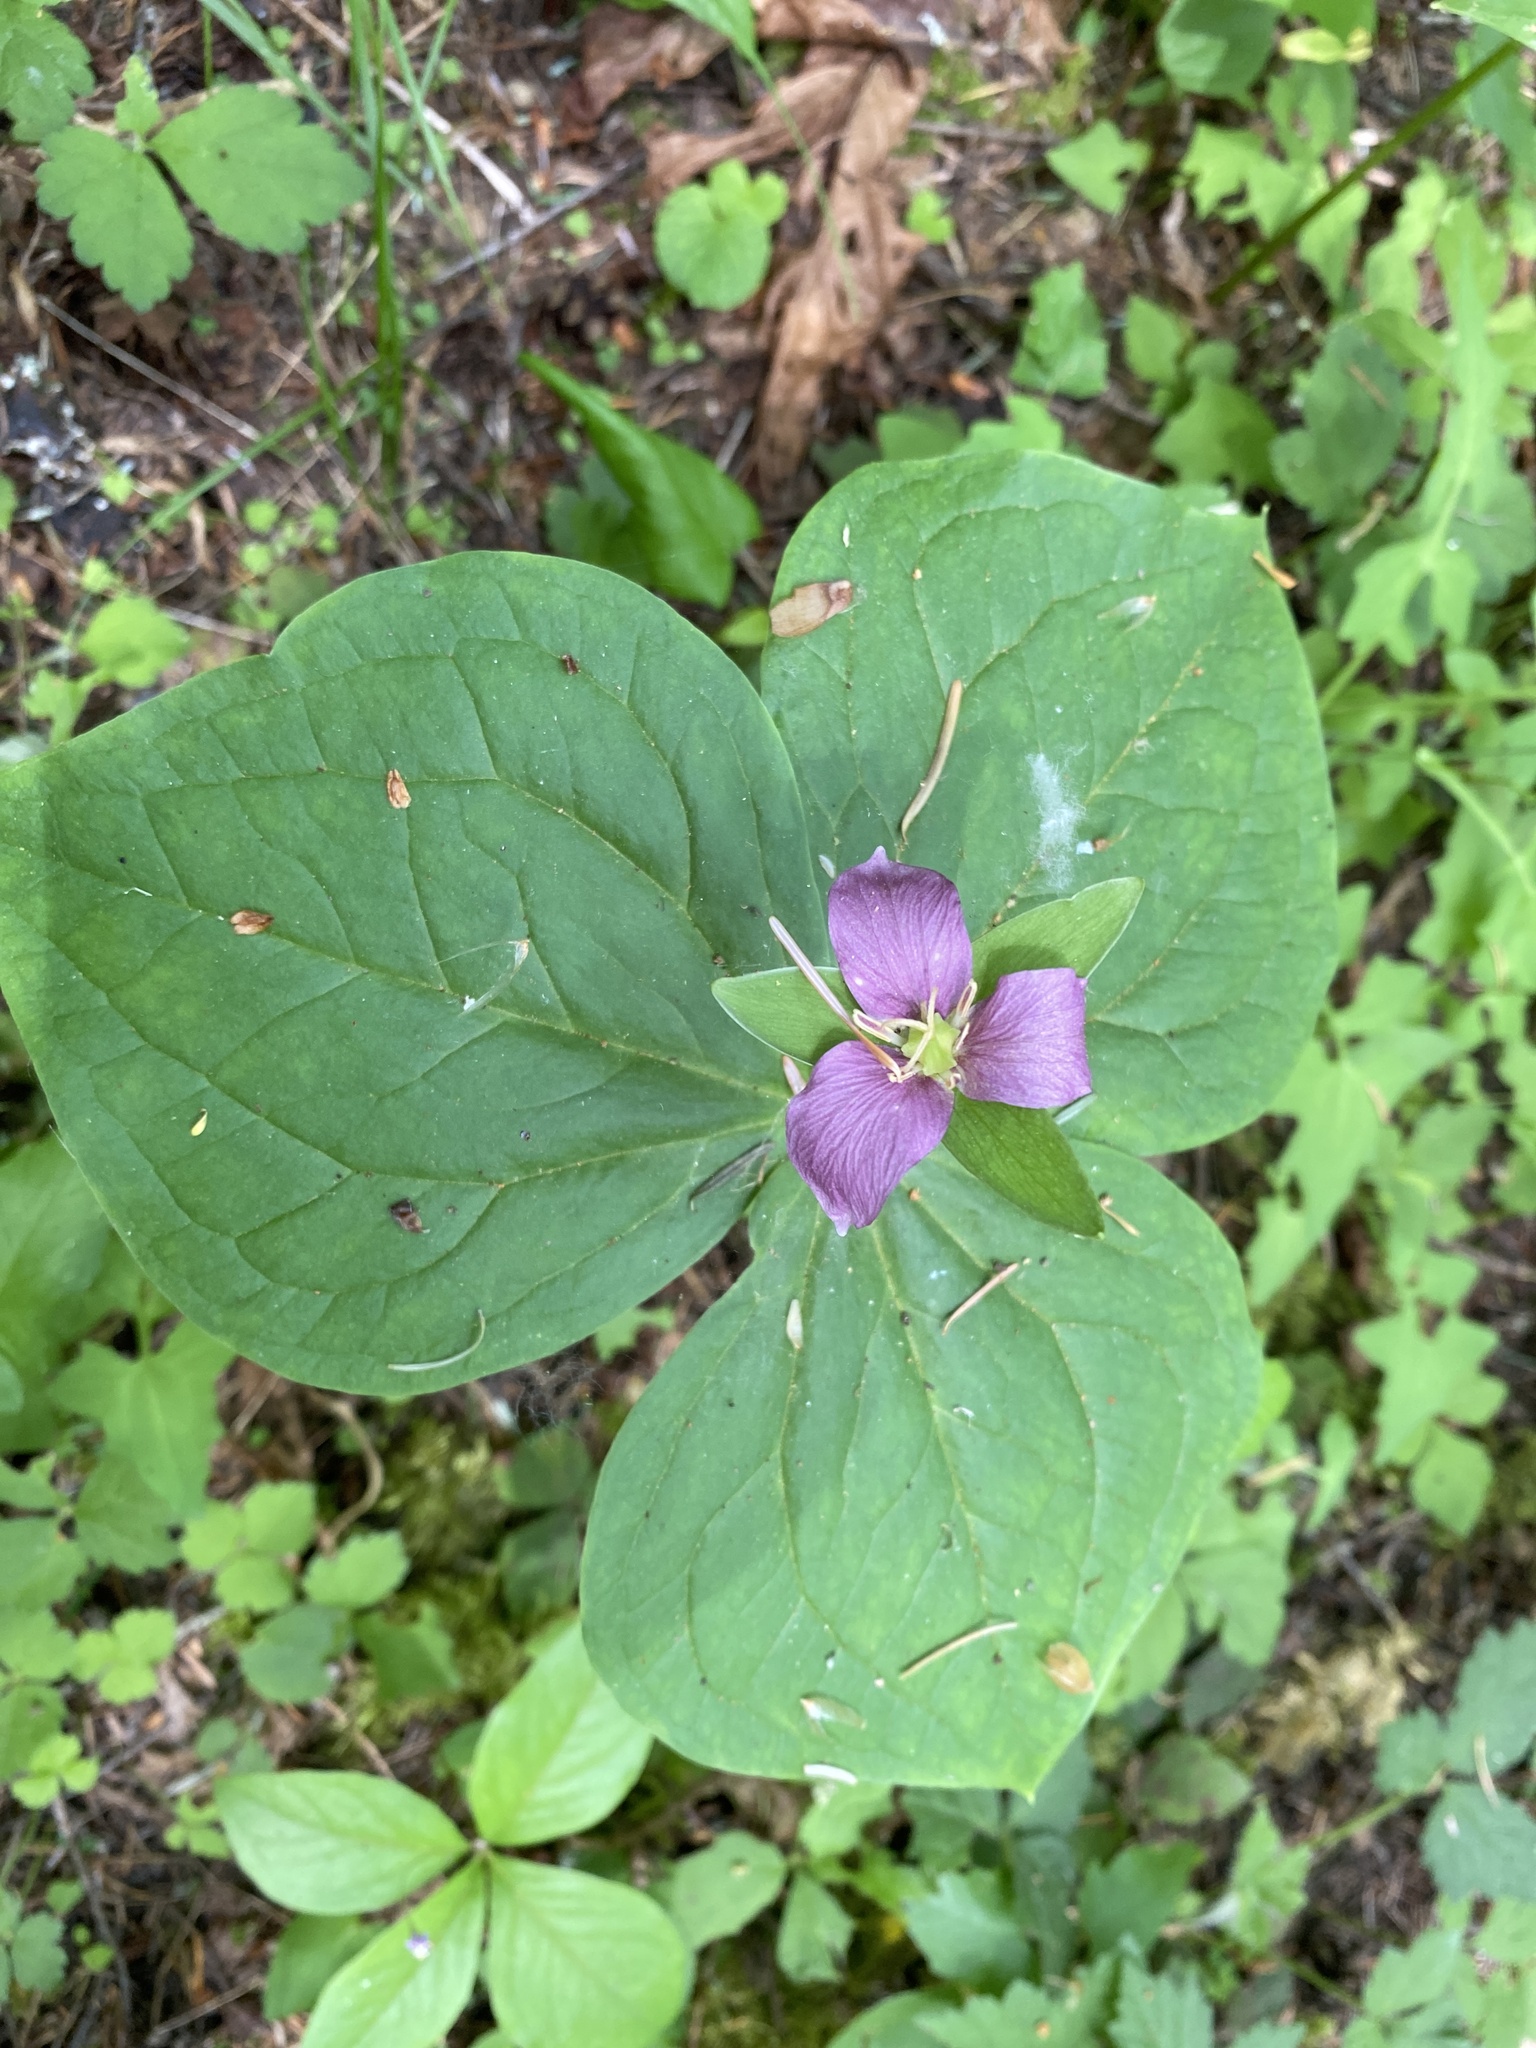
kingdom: Plantae
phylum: Tracheophyta
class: Liliopsida
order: Liliales
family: Melanthiaceae
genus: Trillium
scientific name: Trillium ovatum
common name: Pacific trillium
